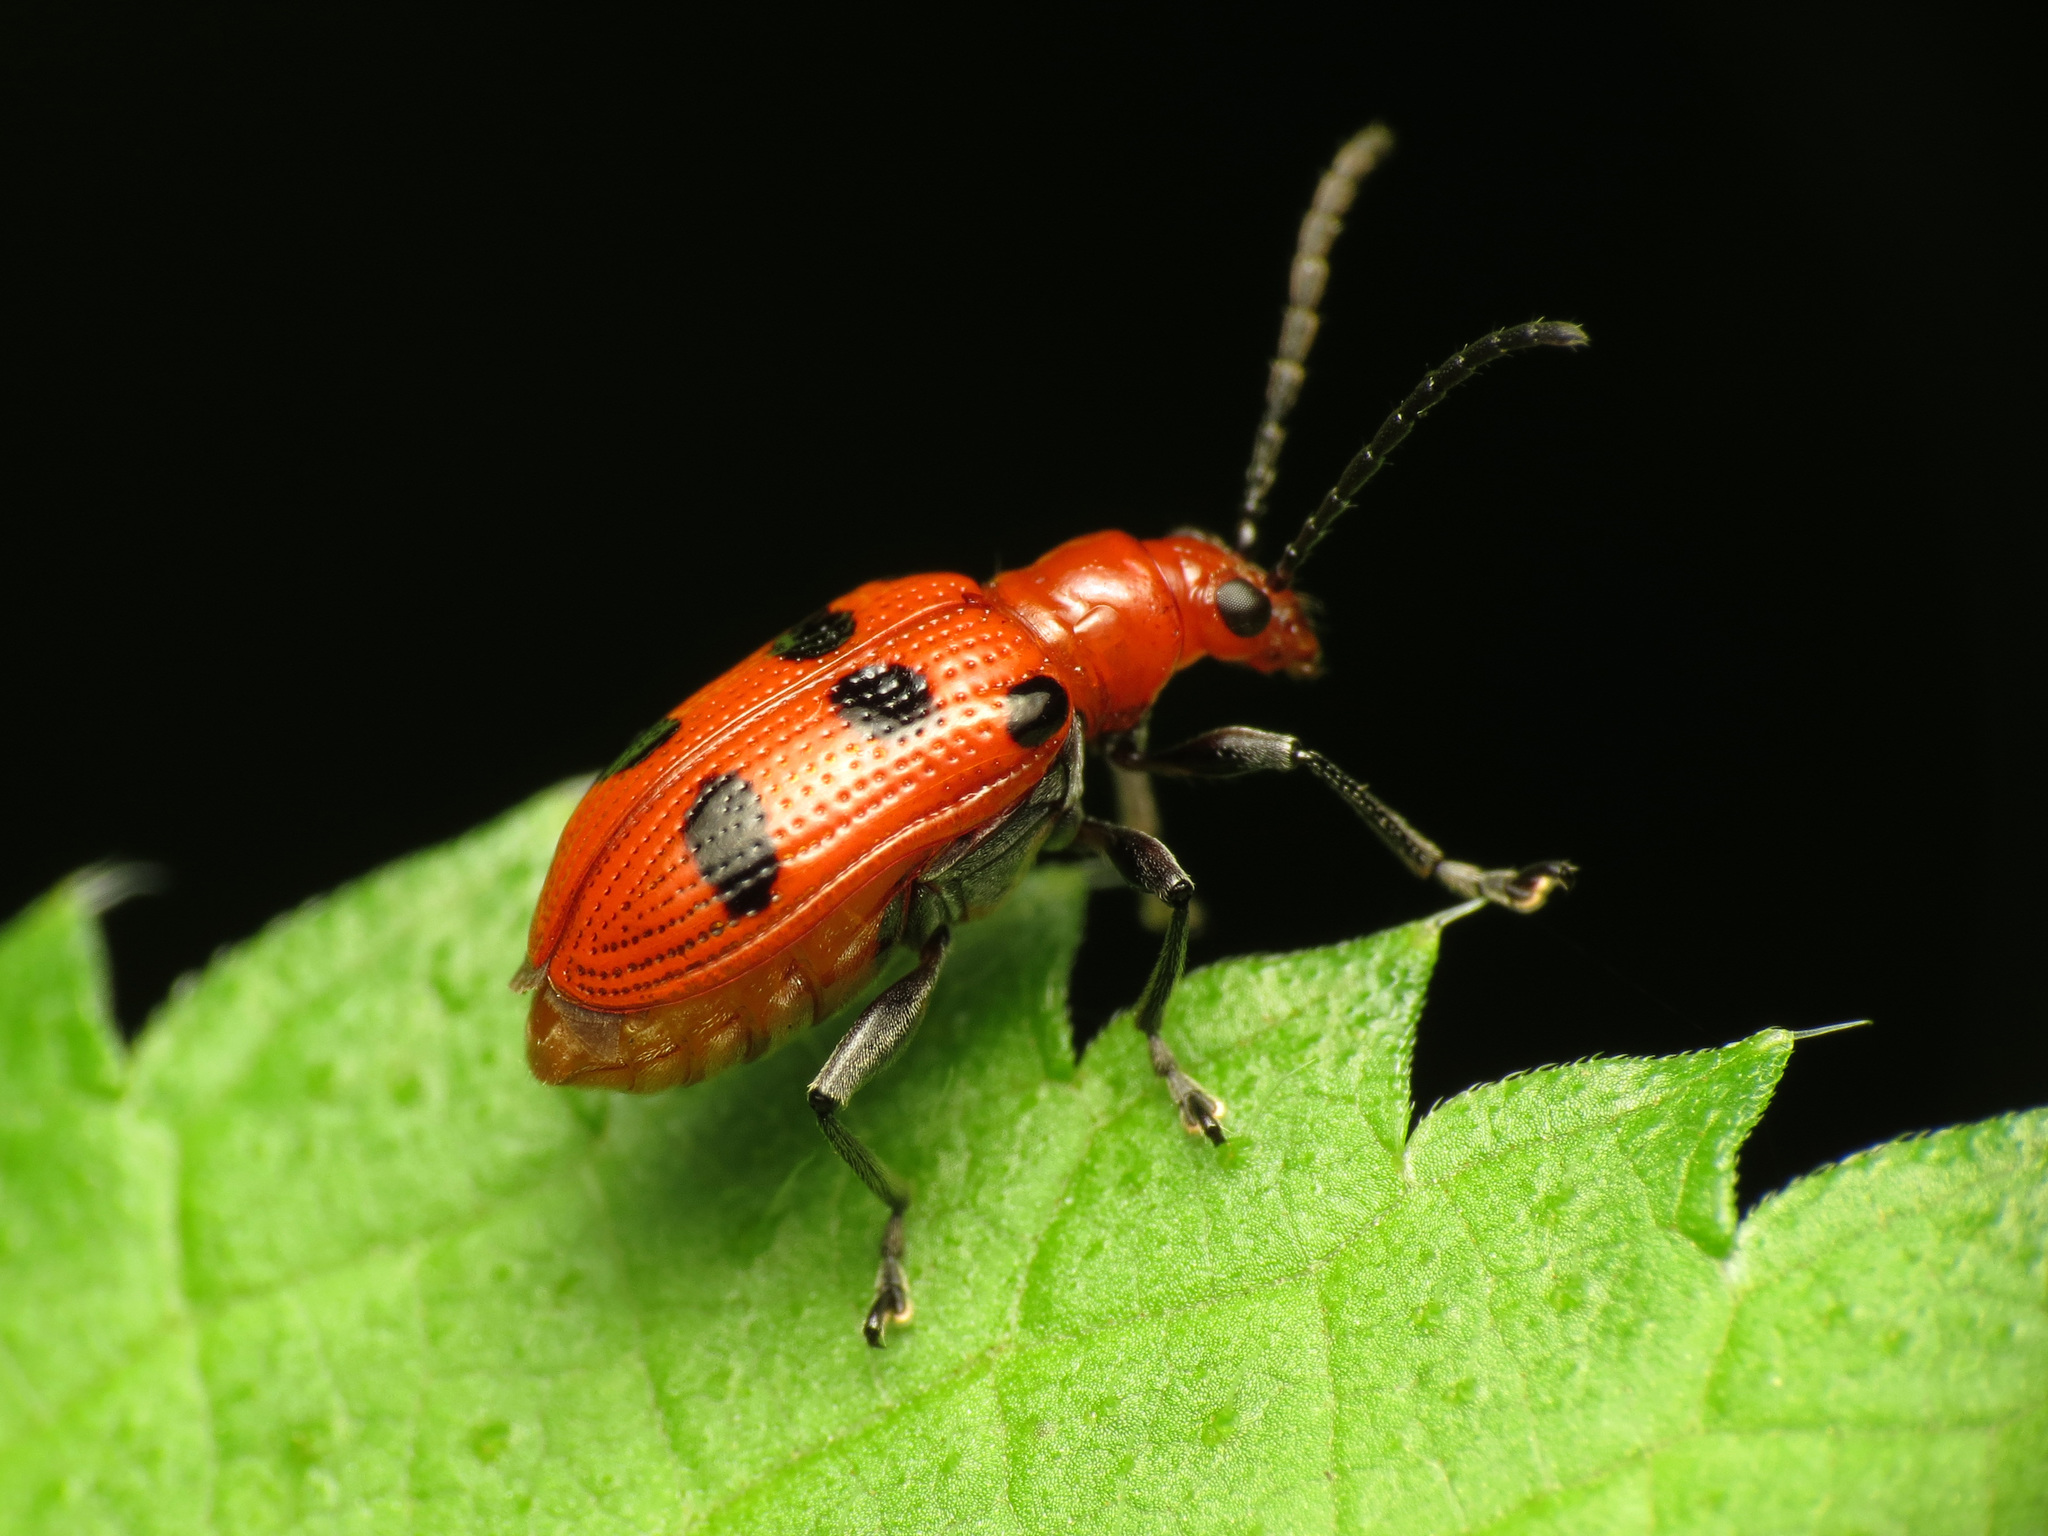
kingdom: Animalia
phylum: Arthropoda
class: Insecta
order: Coleoptera
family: Chrysomelidae
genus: Neolema
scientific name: Neolema sexpunctata
